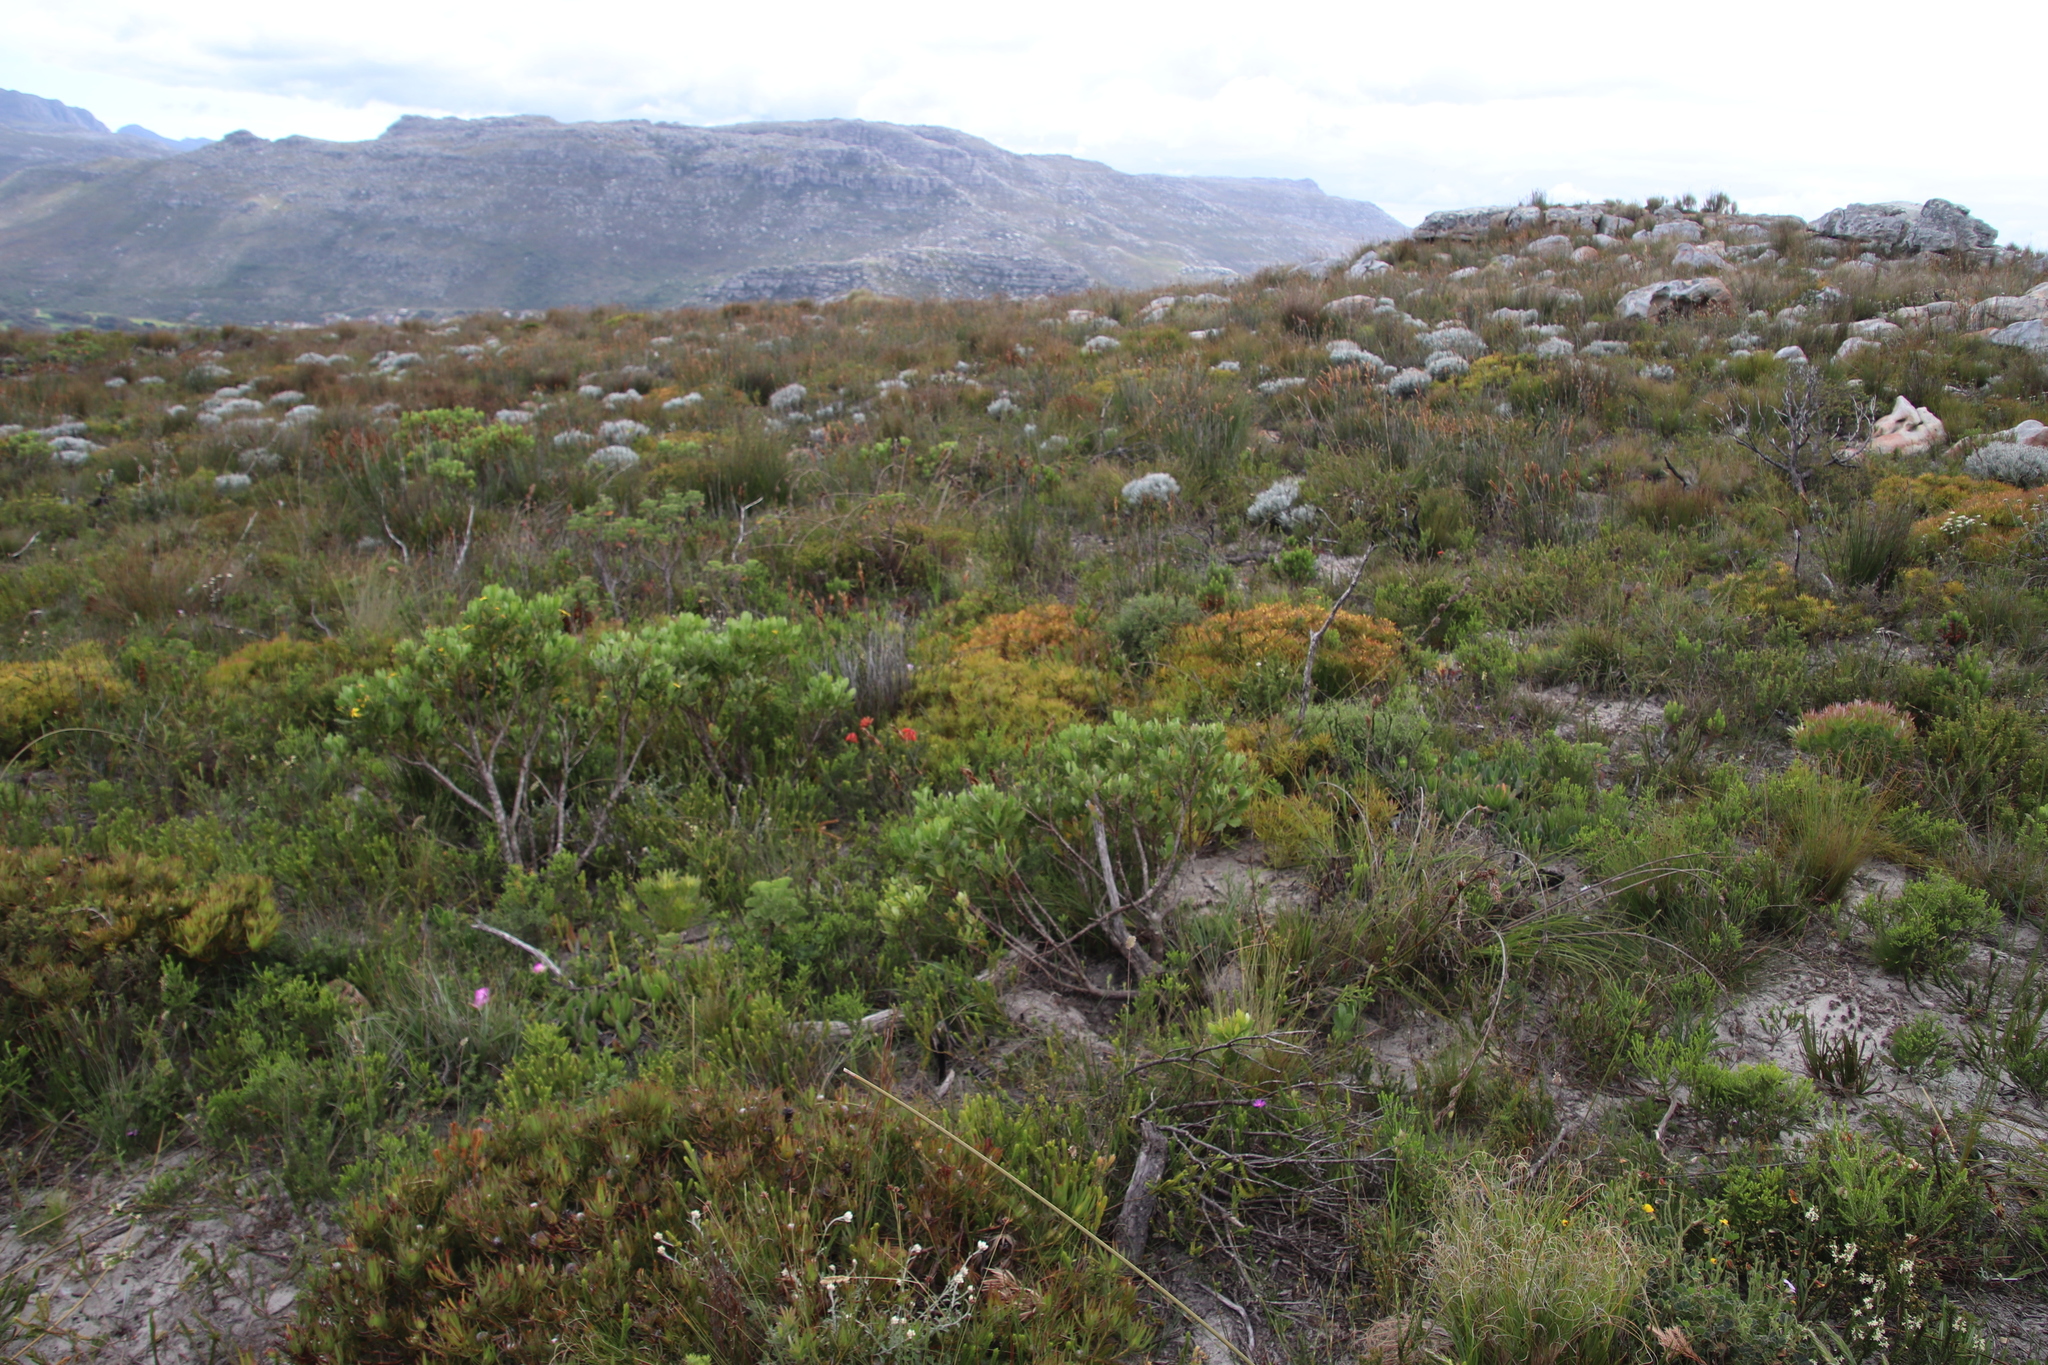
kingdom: Plantae
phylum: Tracheophyta
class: Magnoliopsida
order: Proteales
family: Proteaceae
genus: Leucadendron
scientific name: Leucadendron salignum
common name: Common sunshine conebush
